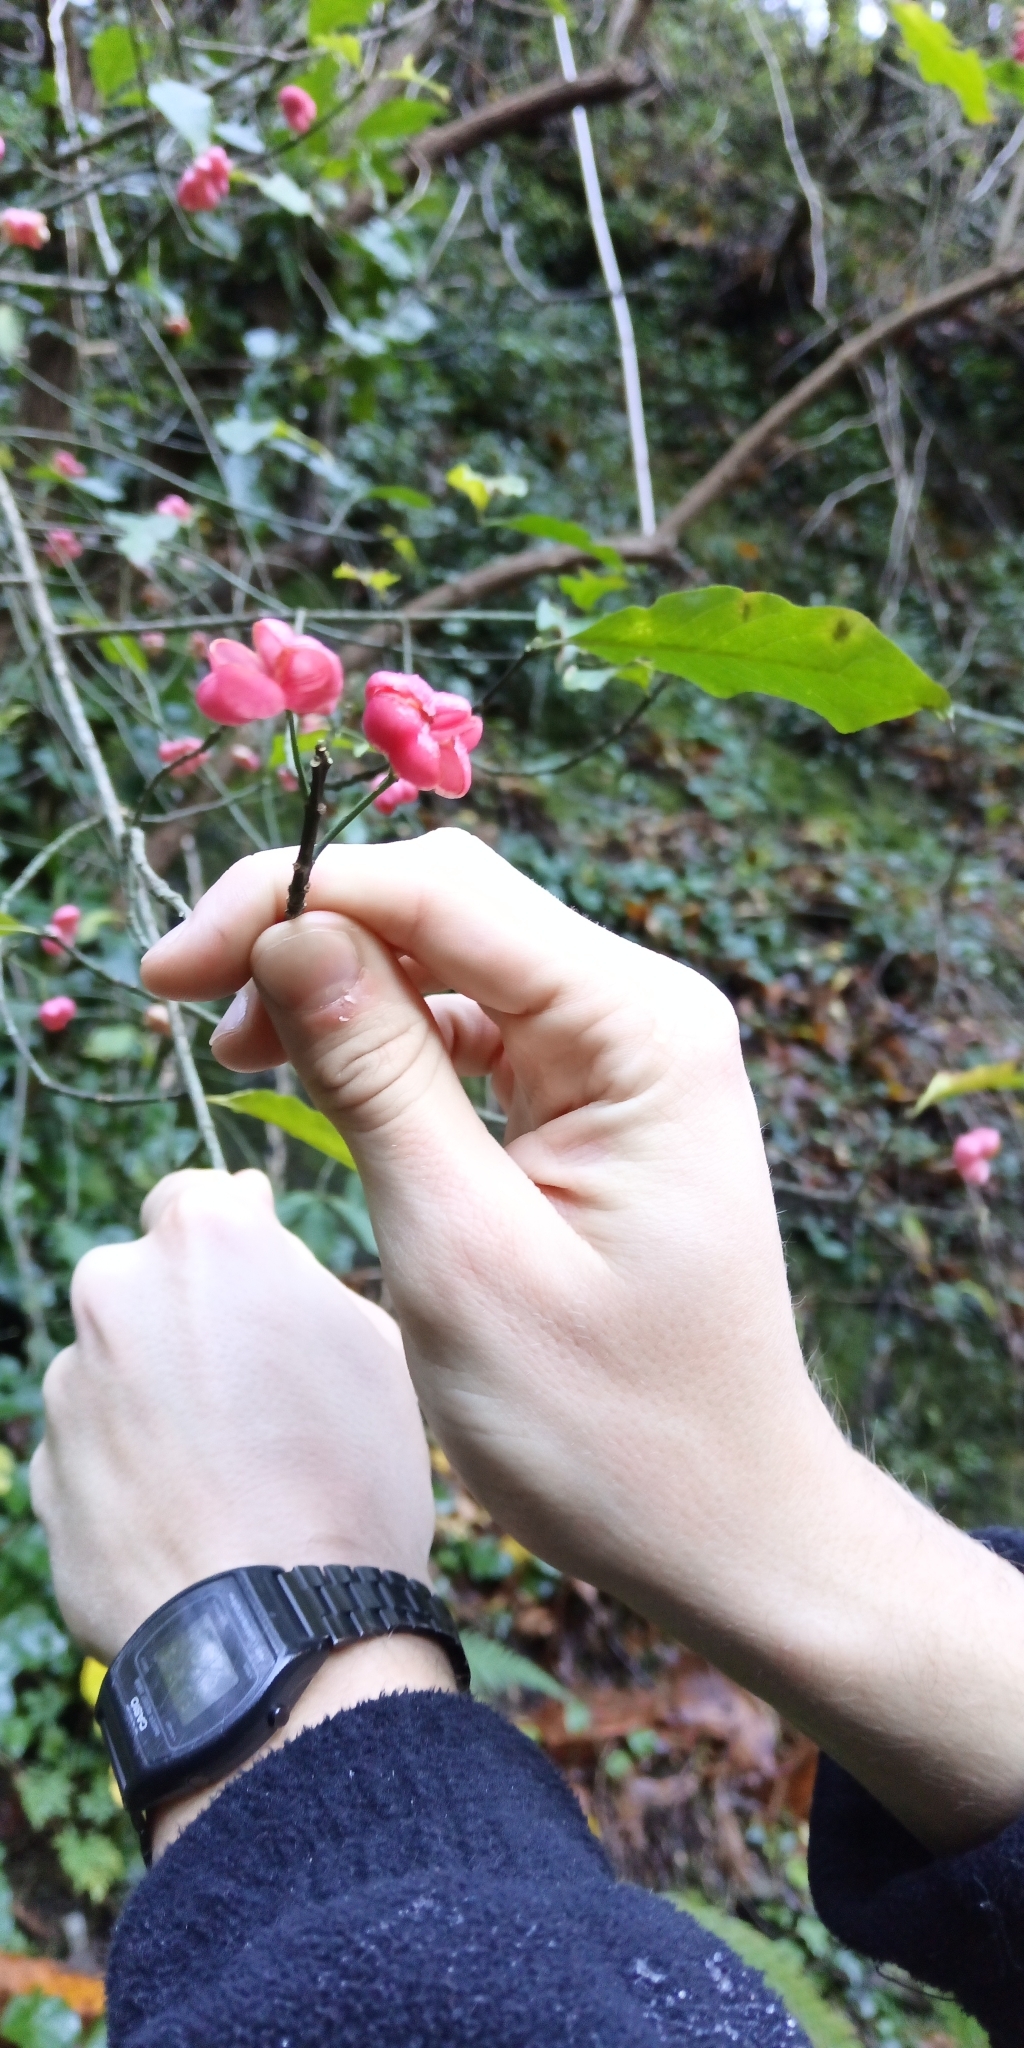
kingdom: Plantae
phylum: Tracheophyta
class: Magnoliopsida
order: Celastrales
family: Celastraceae
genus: Euonymus
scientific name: Euonymus europaeus
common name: Spindle
